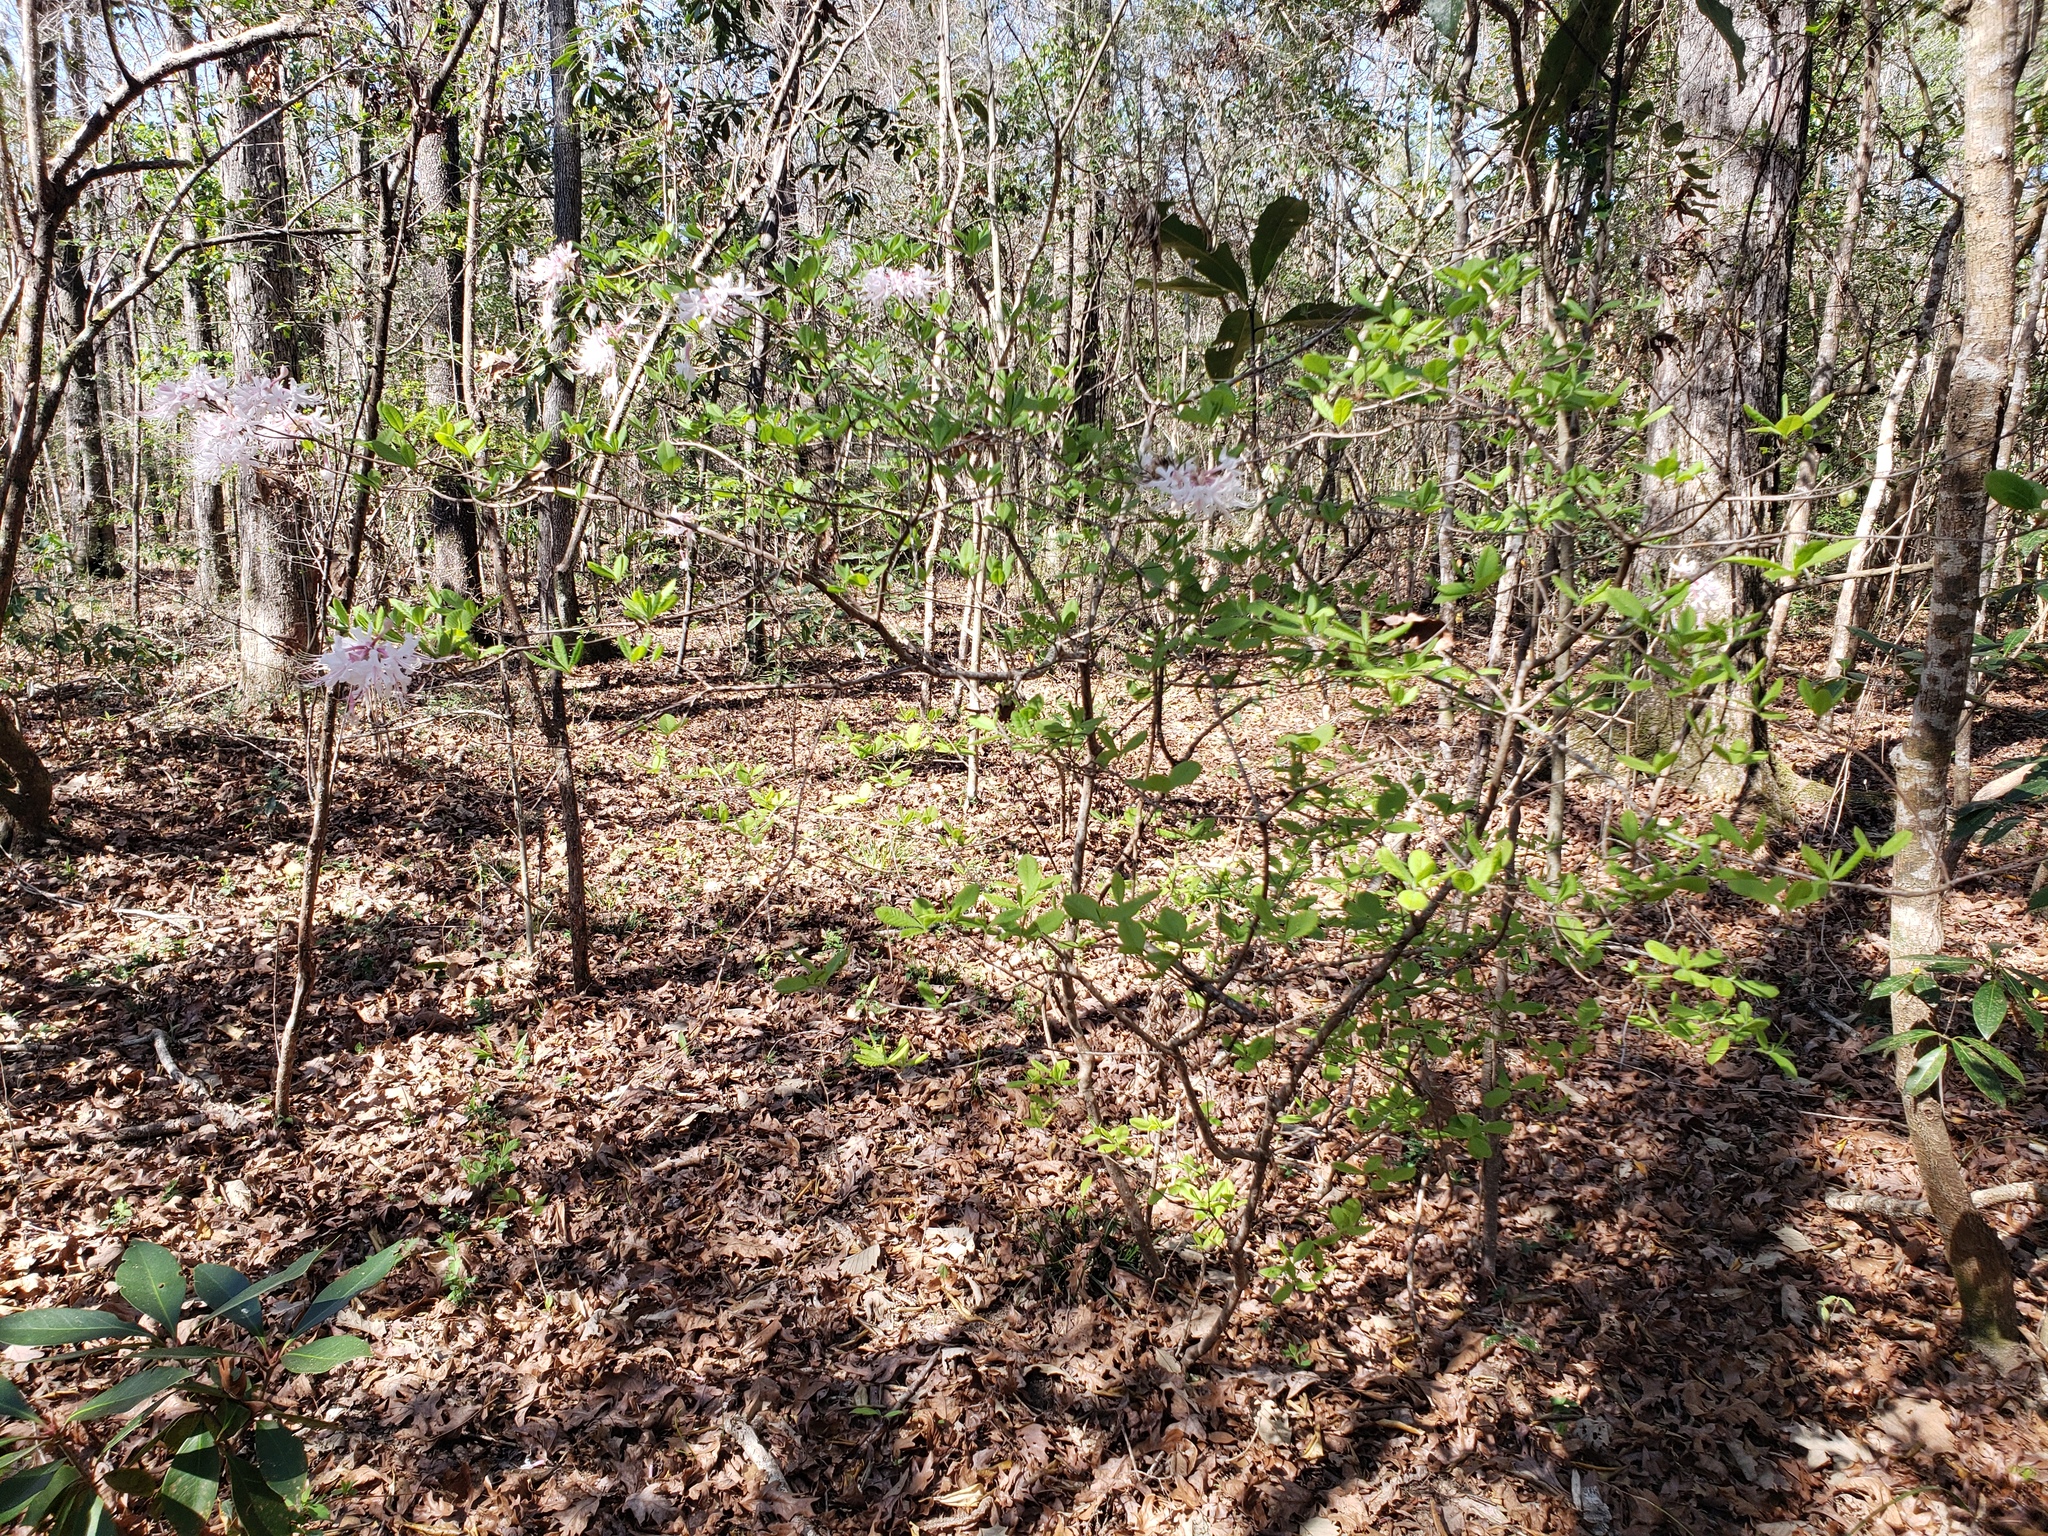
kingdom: Plantae
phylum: Tracheophyta
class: Magnoliopsida
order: Ericales
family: Ericaceae
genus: Rhododendron
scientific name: Rhododendron canescens
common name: Mountain azalea
